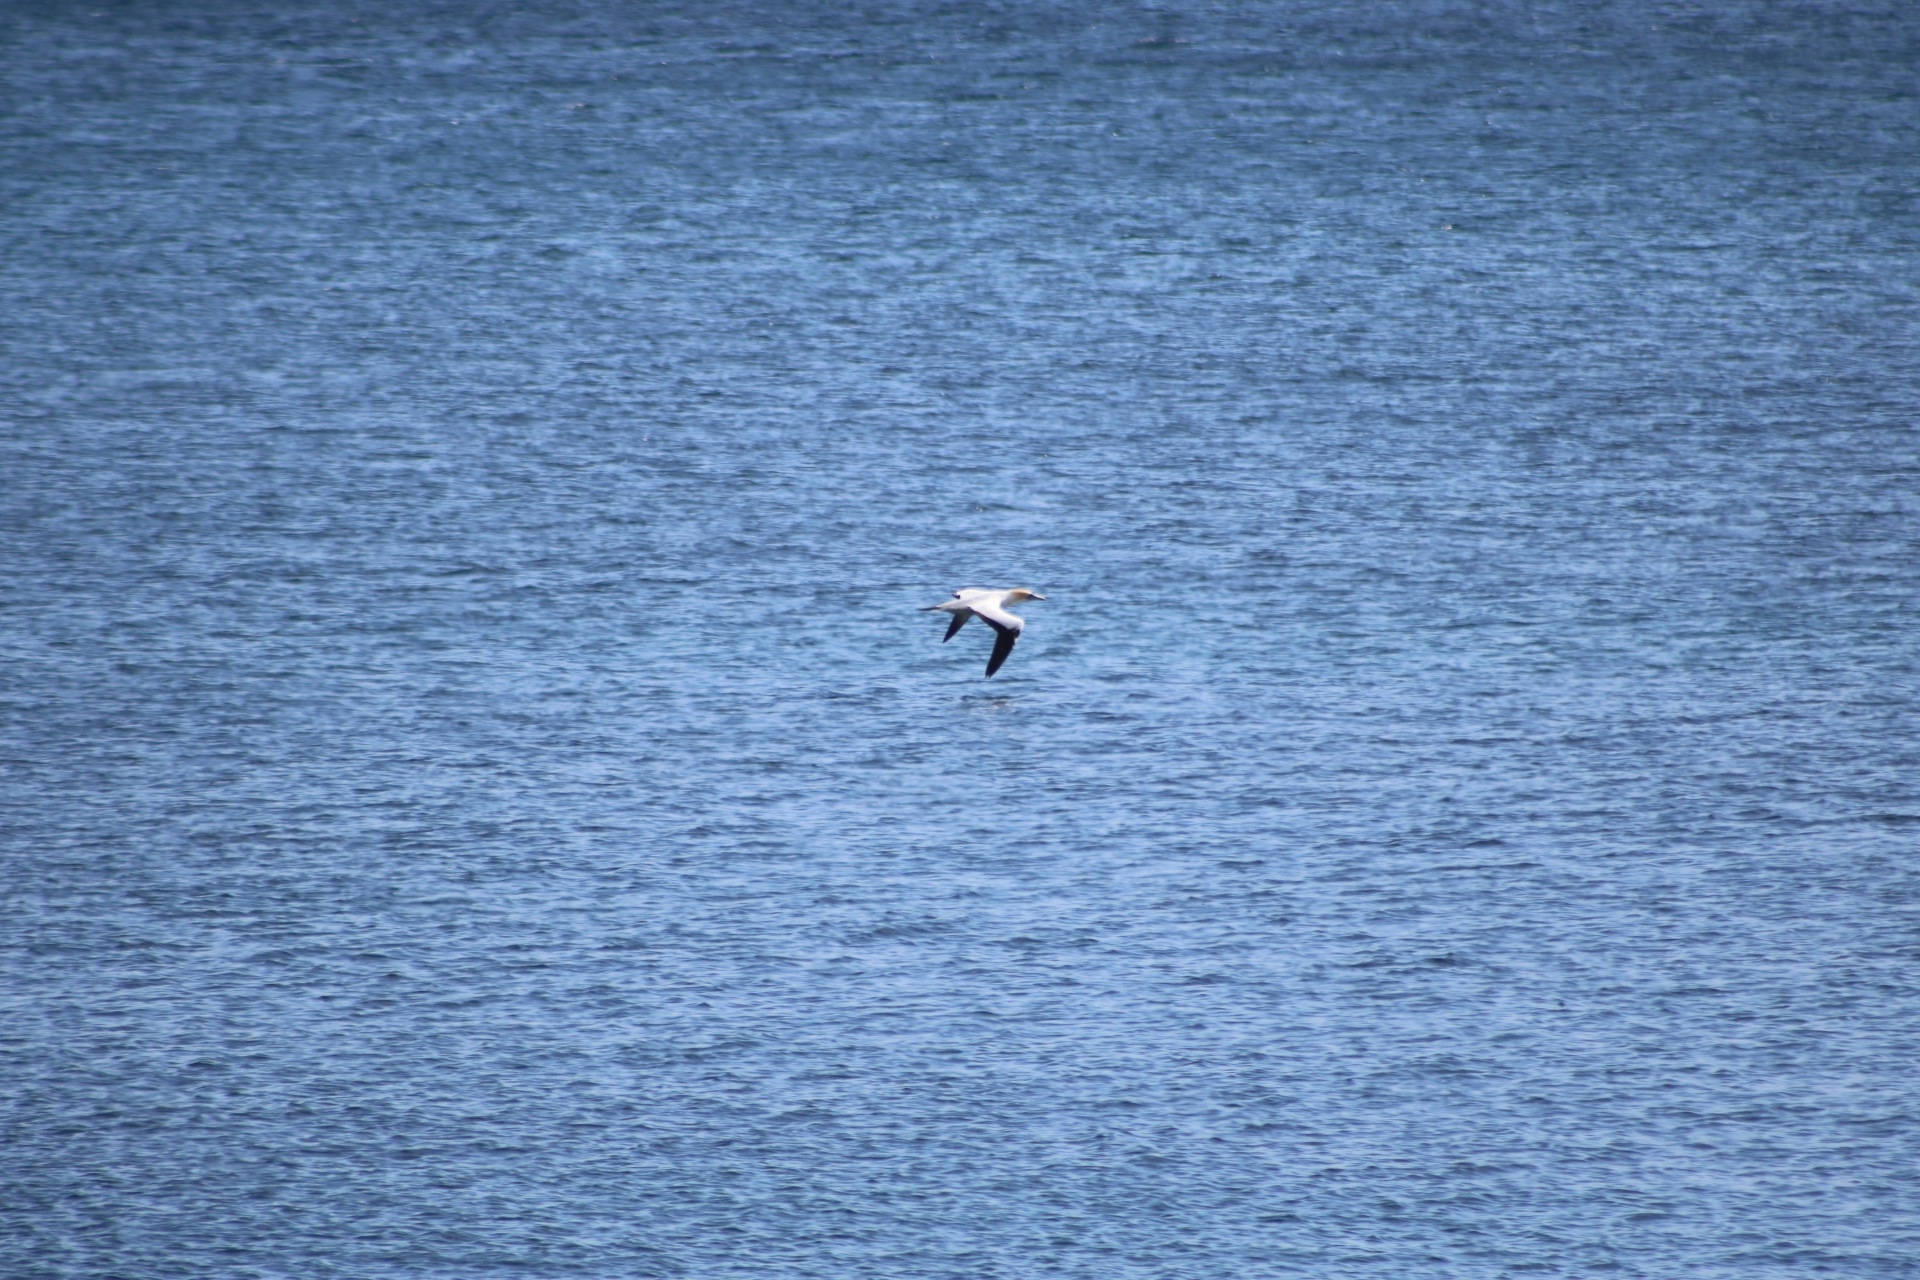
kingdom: Animalia
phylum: Chordata
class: Aves
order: Suliformes
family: Sulidae
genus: Morus
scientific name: Morus serrator
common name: Australasian gannet
